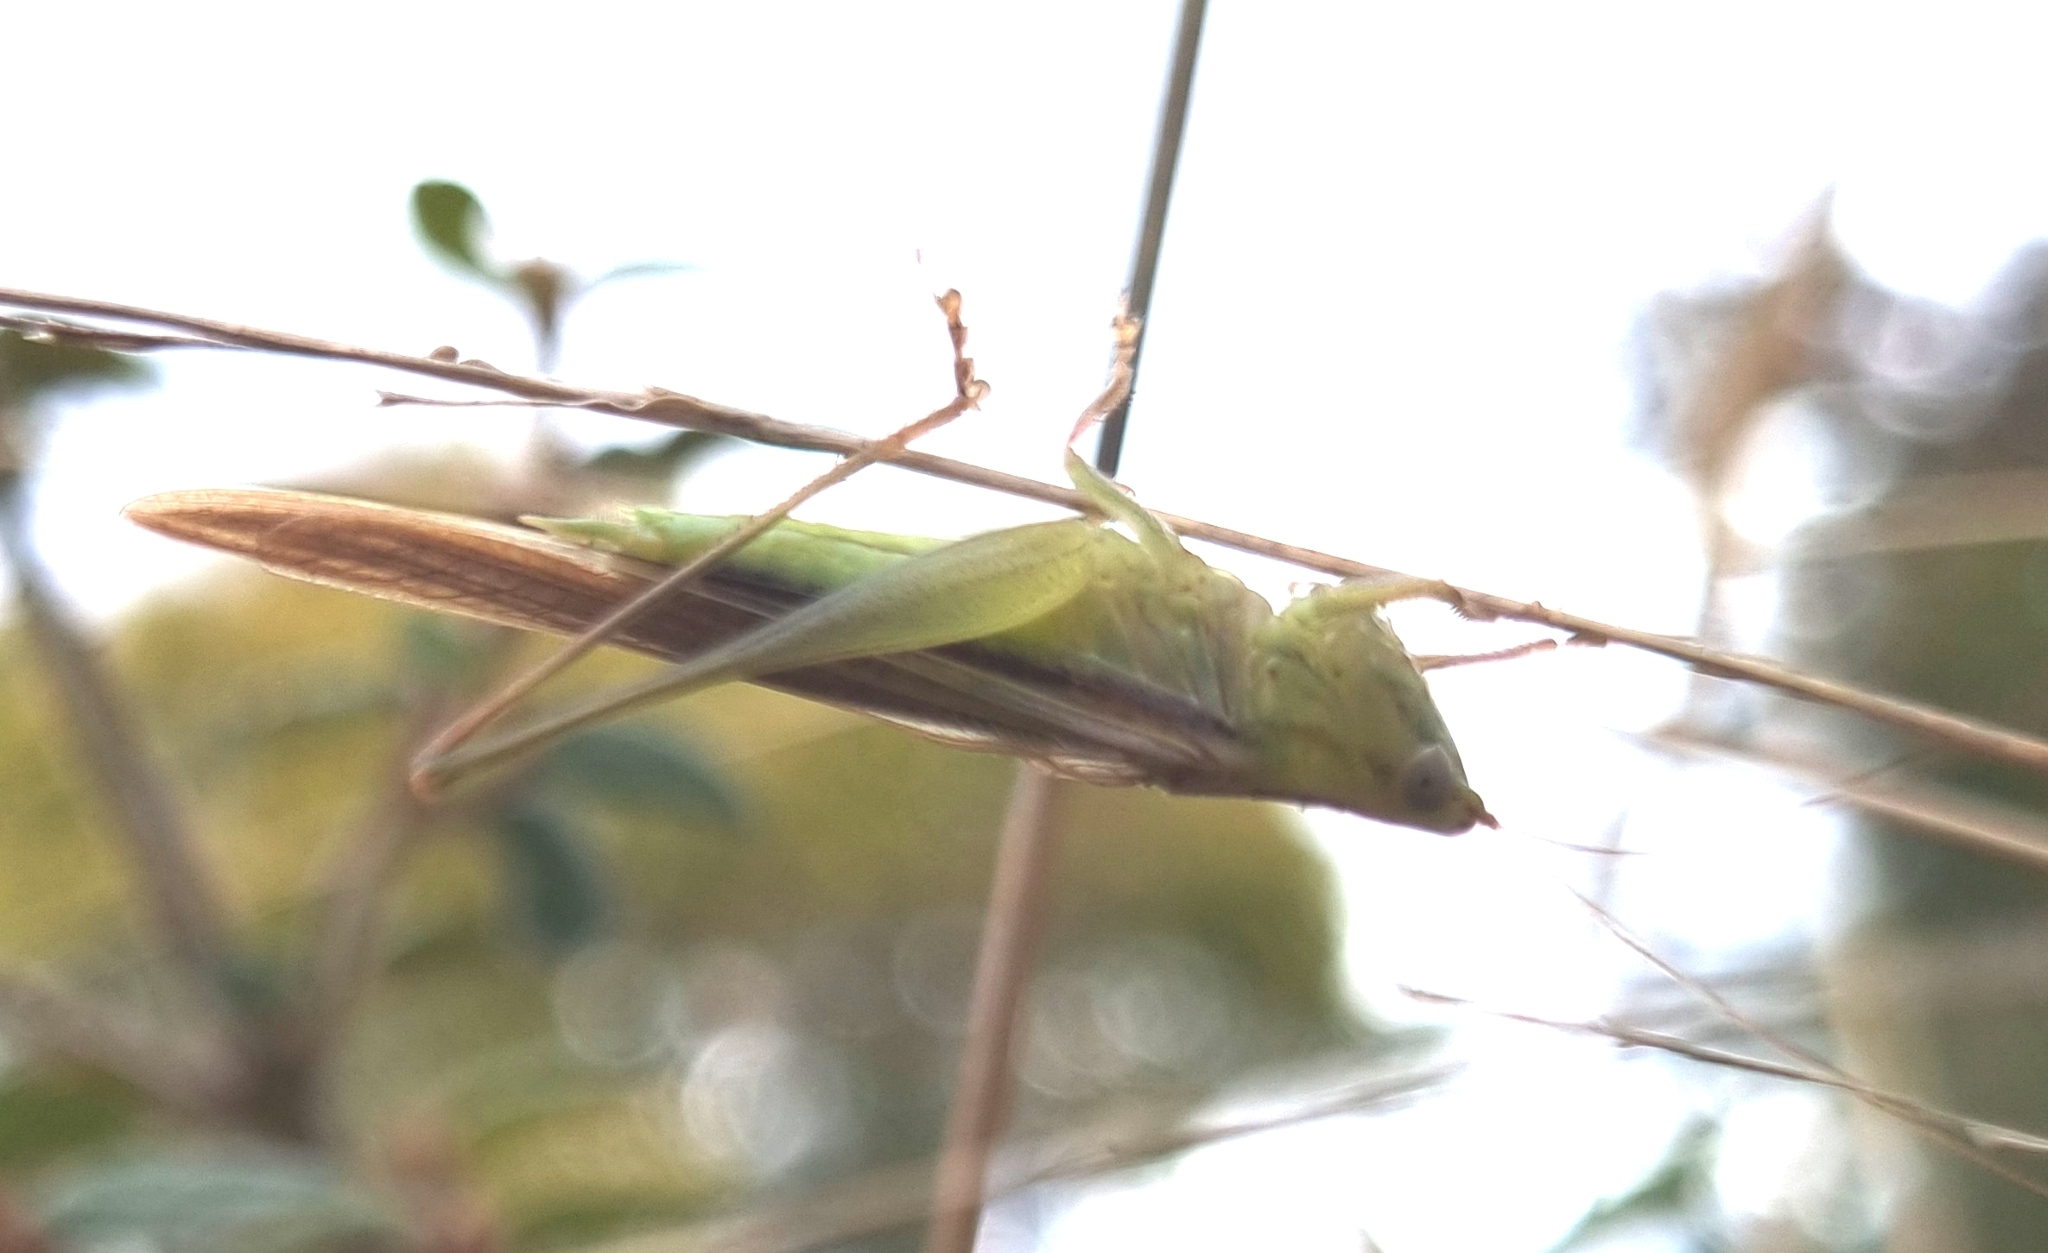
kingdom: Animalia
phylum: Arthropoda
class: Insecta
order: Orthoptera
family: Tettigoniidae
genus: Conocephalus
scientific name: Conocephalus upoluensis
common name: Upolu meadow katydid
